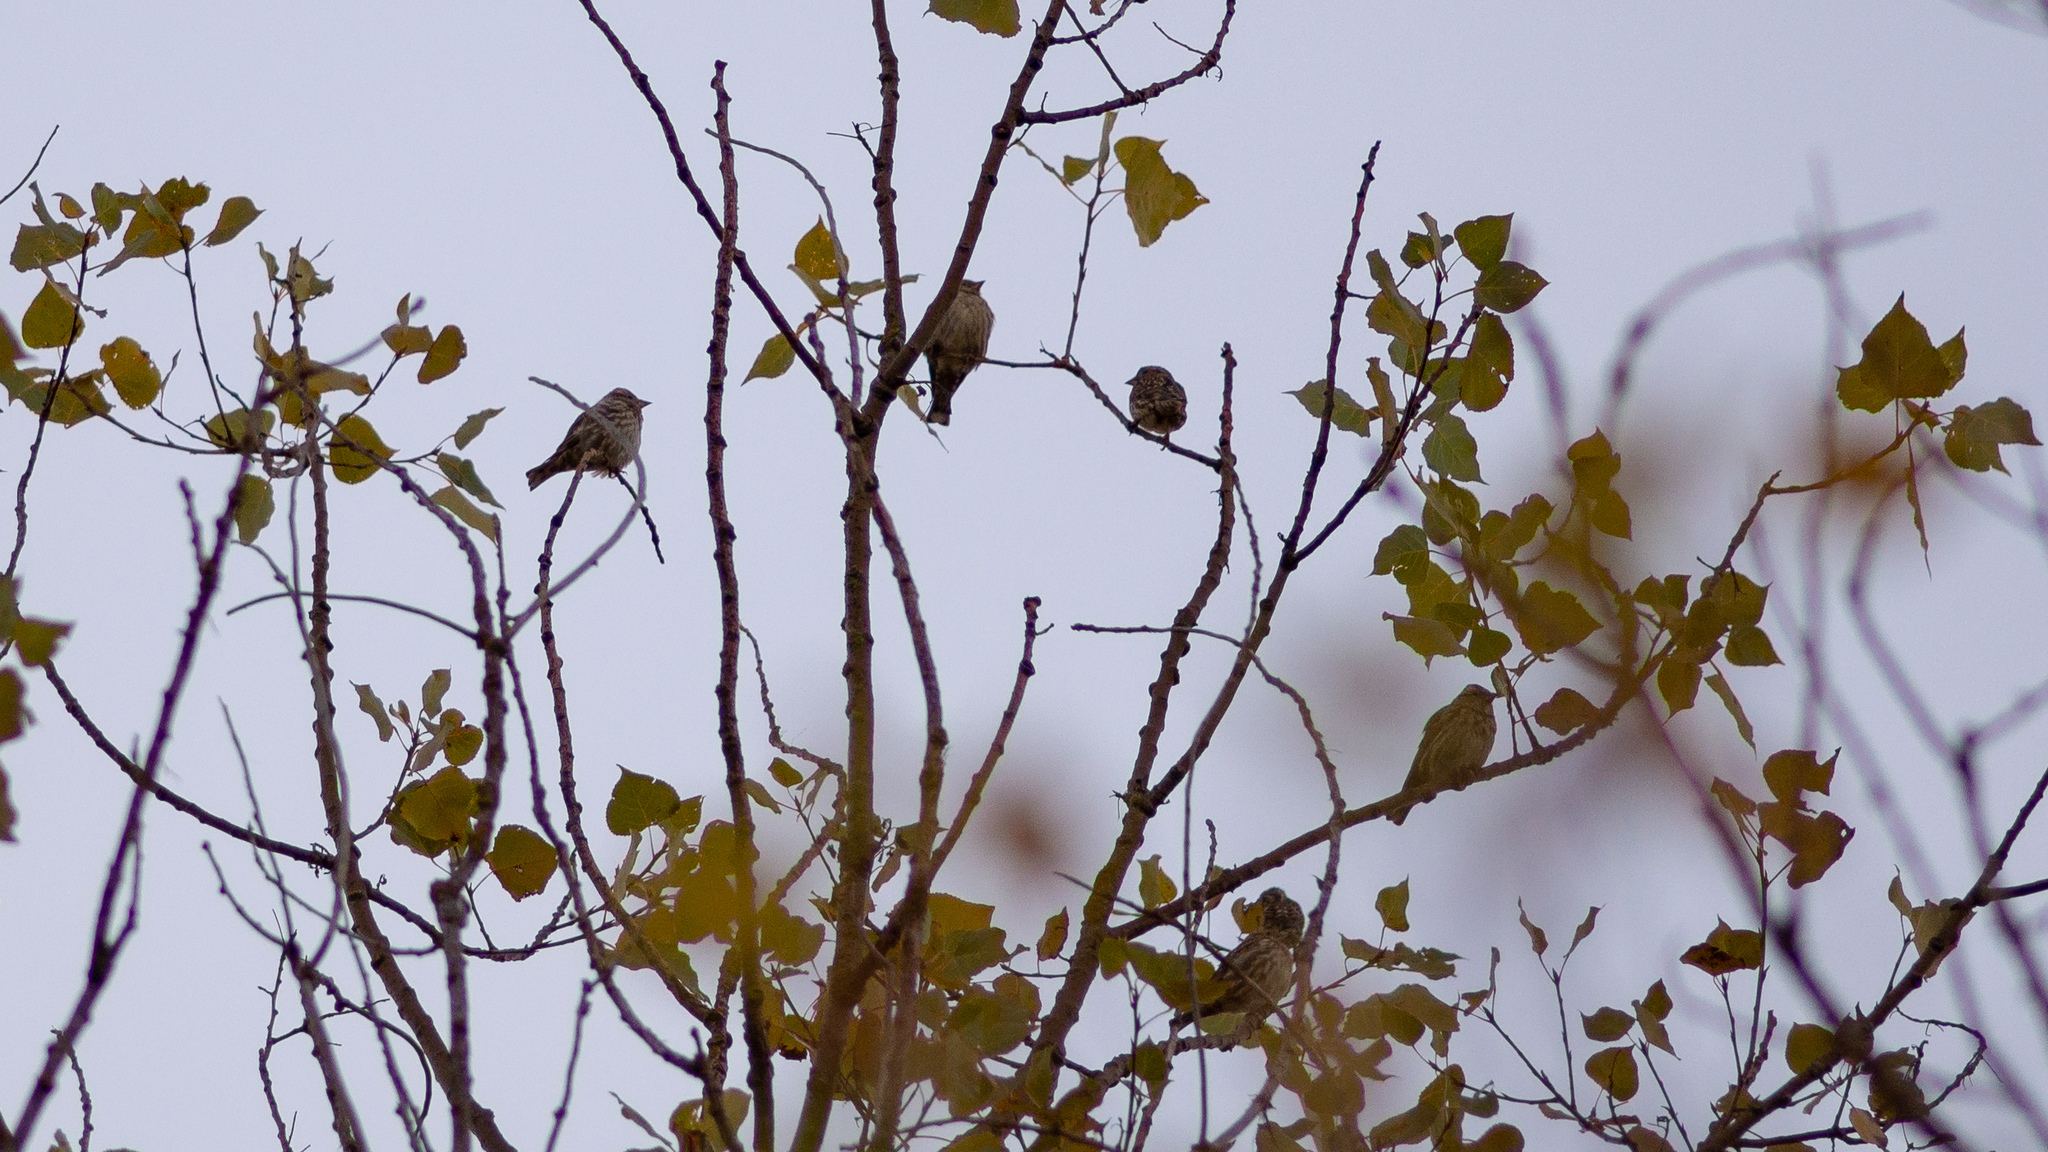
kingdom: Animalia
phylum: Chordata
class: Aves
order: Passeriformes
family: Passeridae
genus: Petronia
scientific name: Petronia petronia
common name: Rock sparrow
